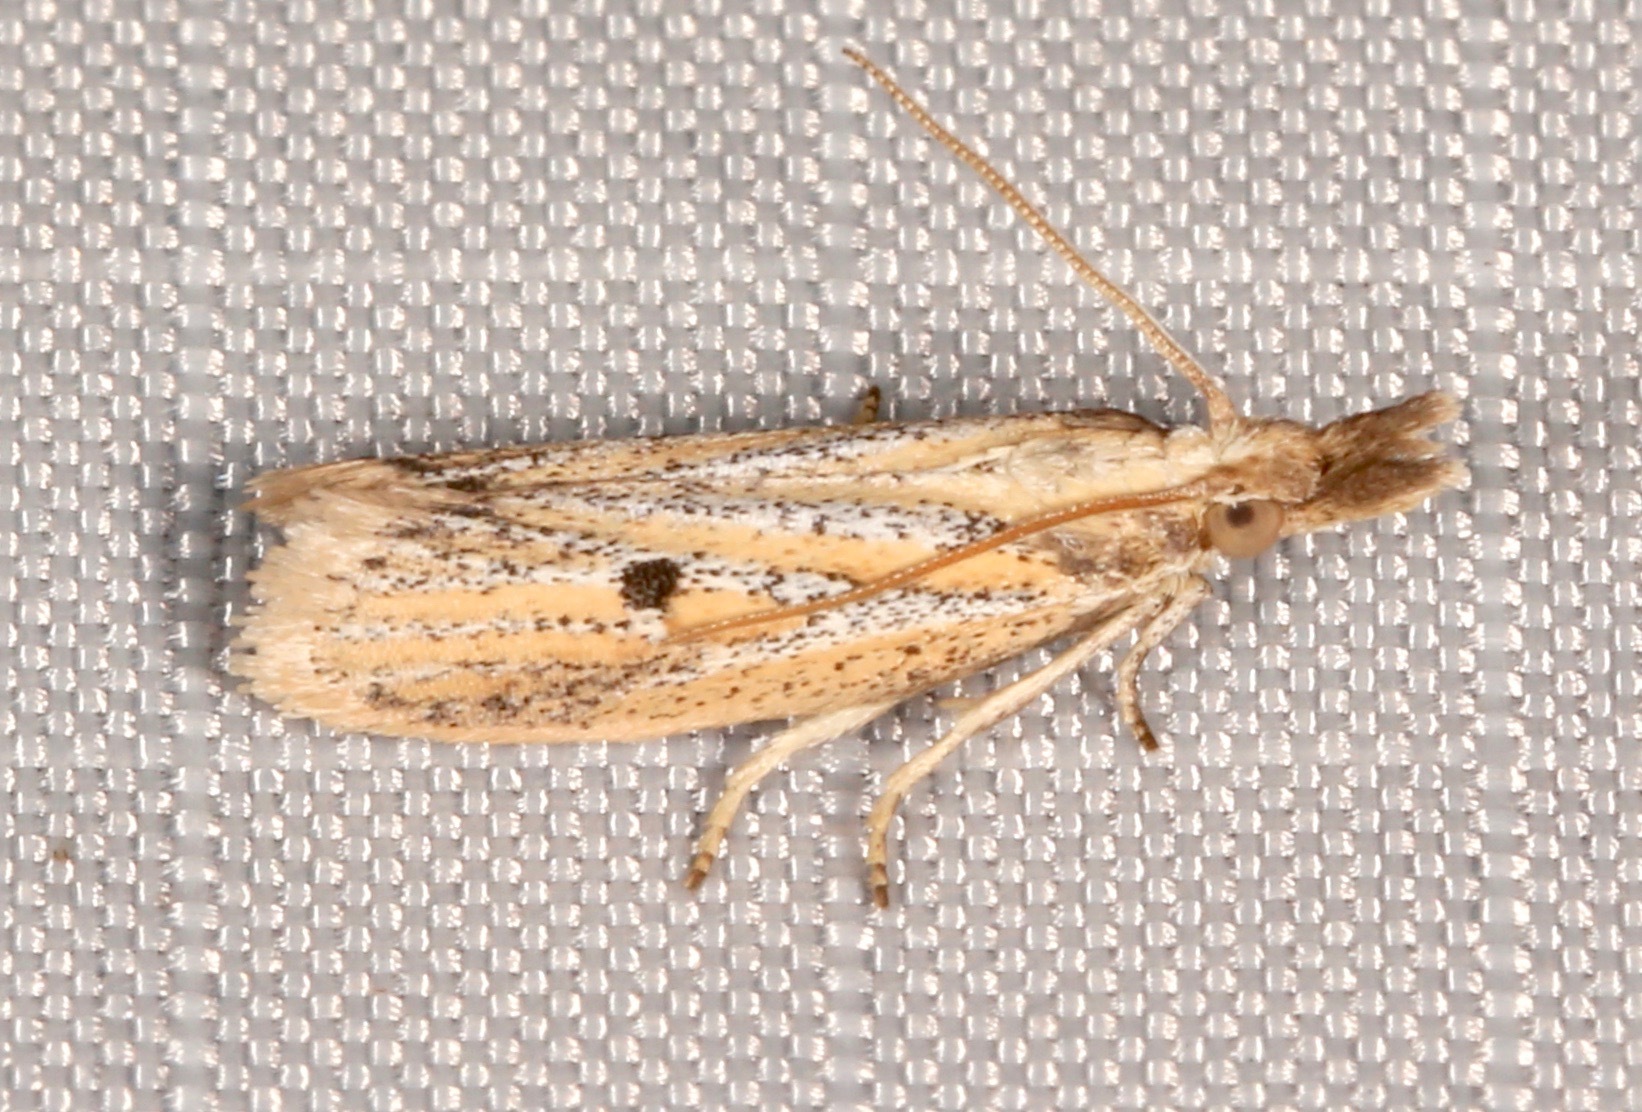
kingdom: Animalia
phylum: Arthropoda
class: Insecta
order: Lepidoptera
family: Pyralidae
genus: Coenochroa
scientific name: Coenochroa bipunctella
